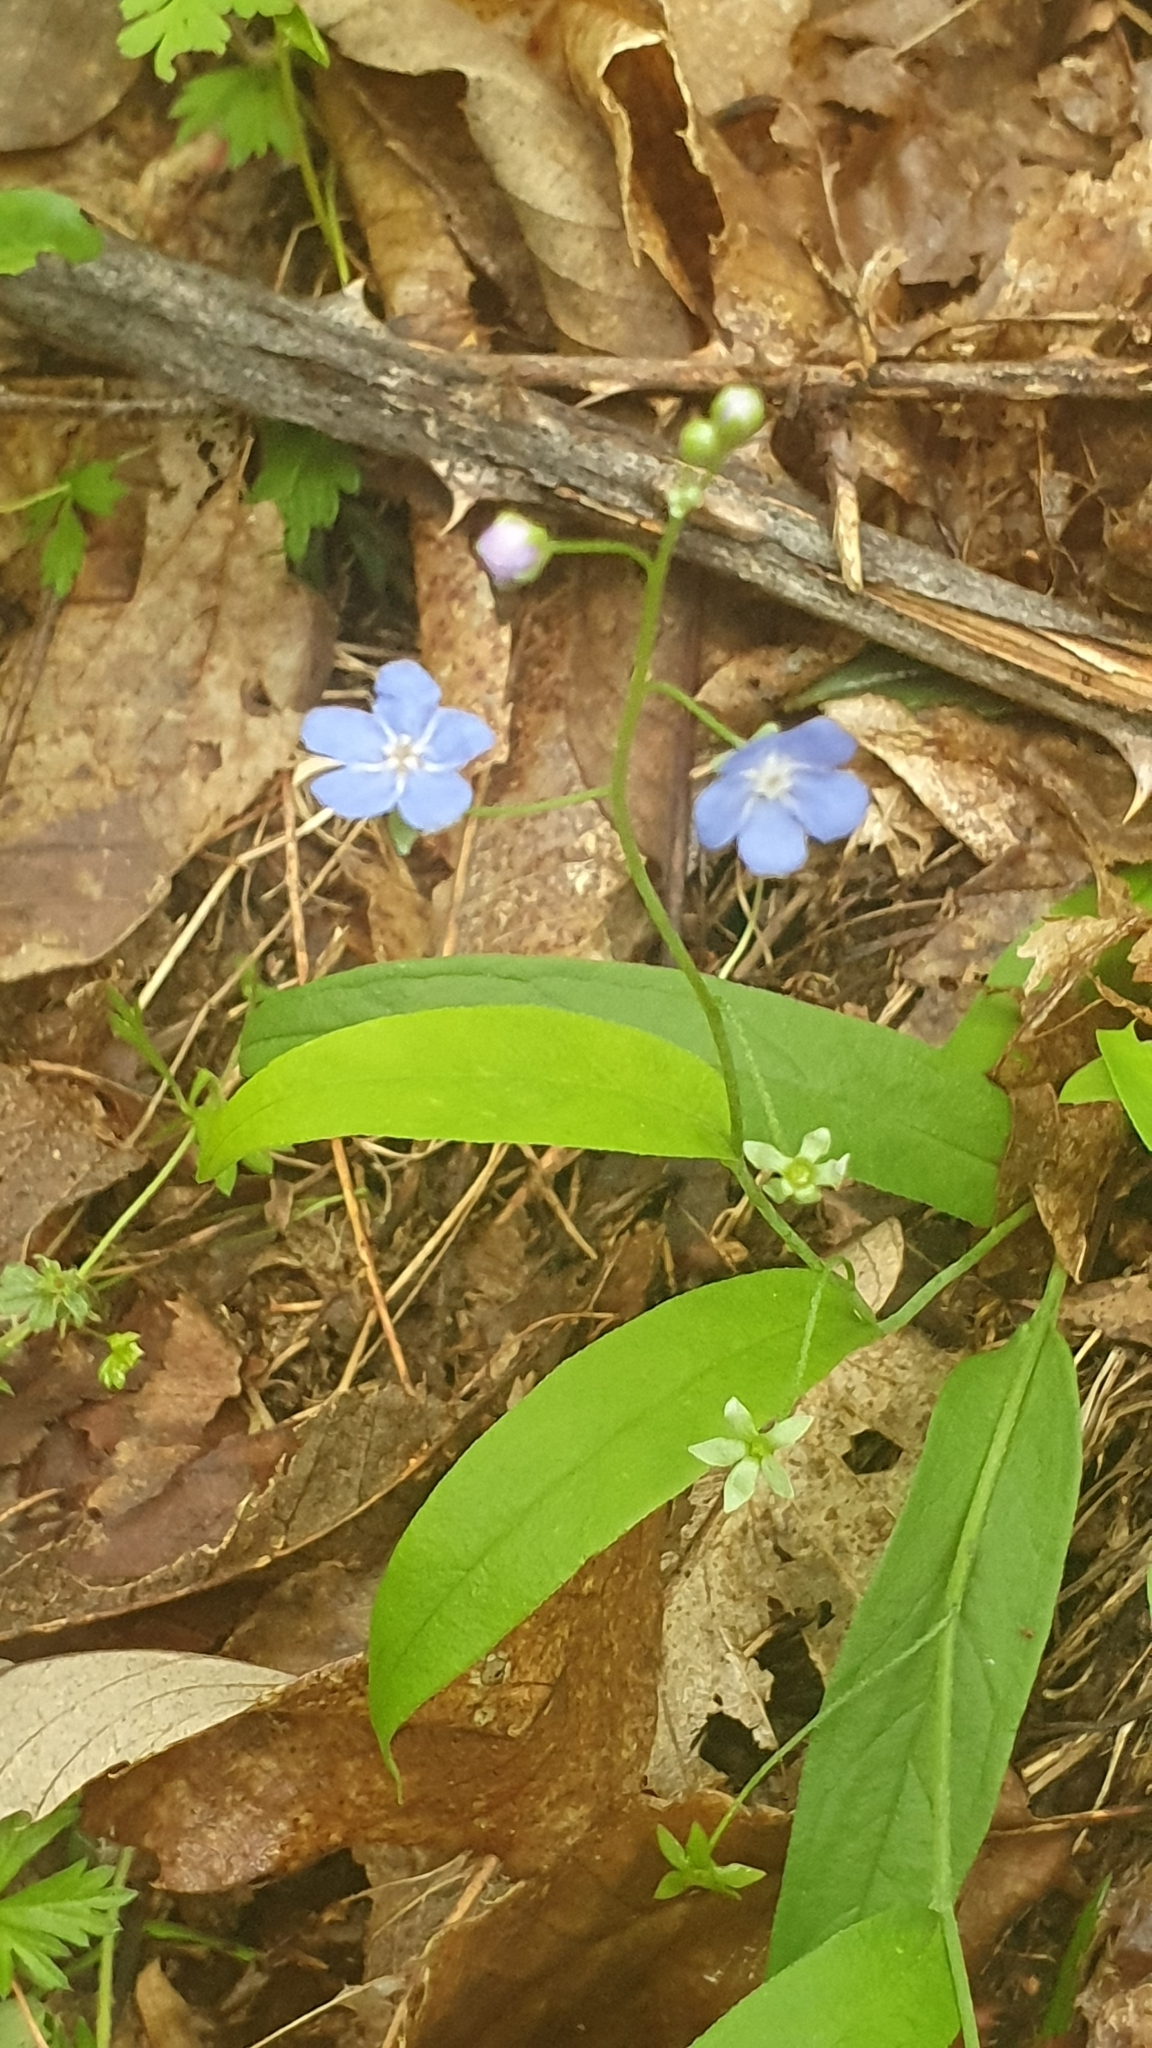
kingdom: Plantae
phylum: Tracheophyta
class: Magnoliopsida
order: Boraginales
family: Boraginaceae
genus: Omphalodes
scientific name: Omphalodes nitida
